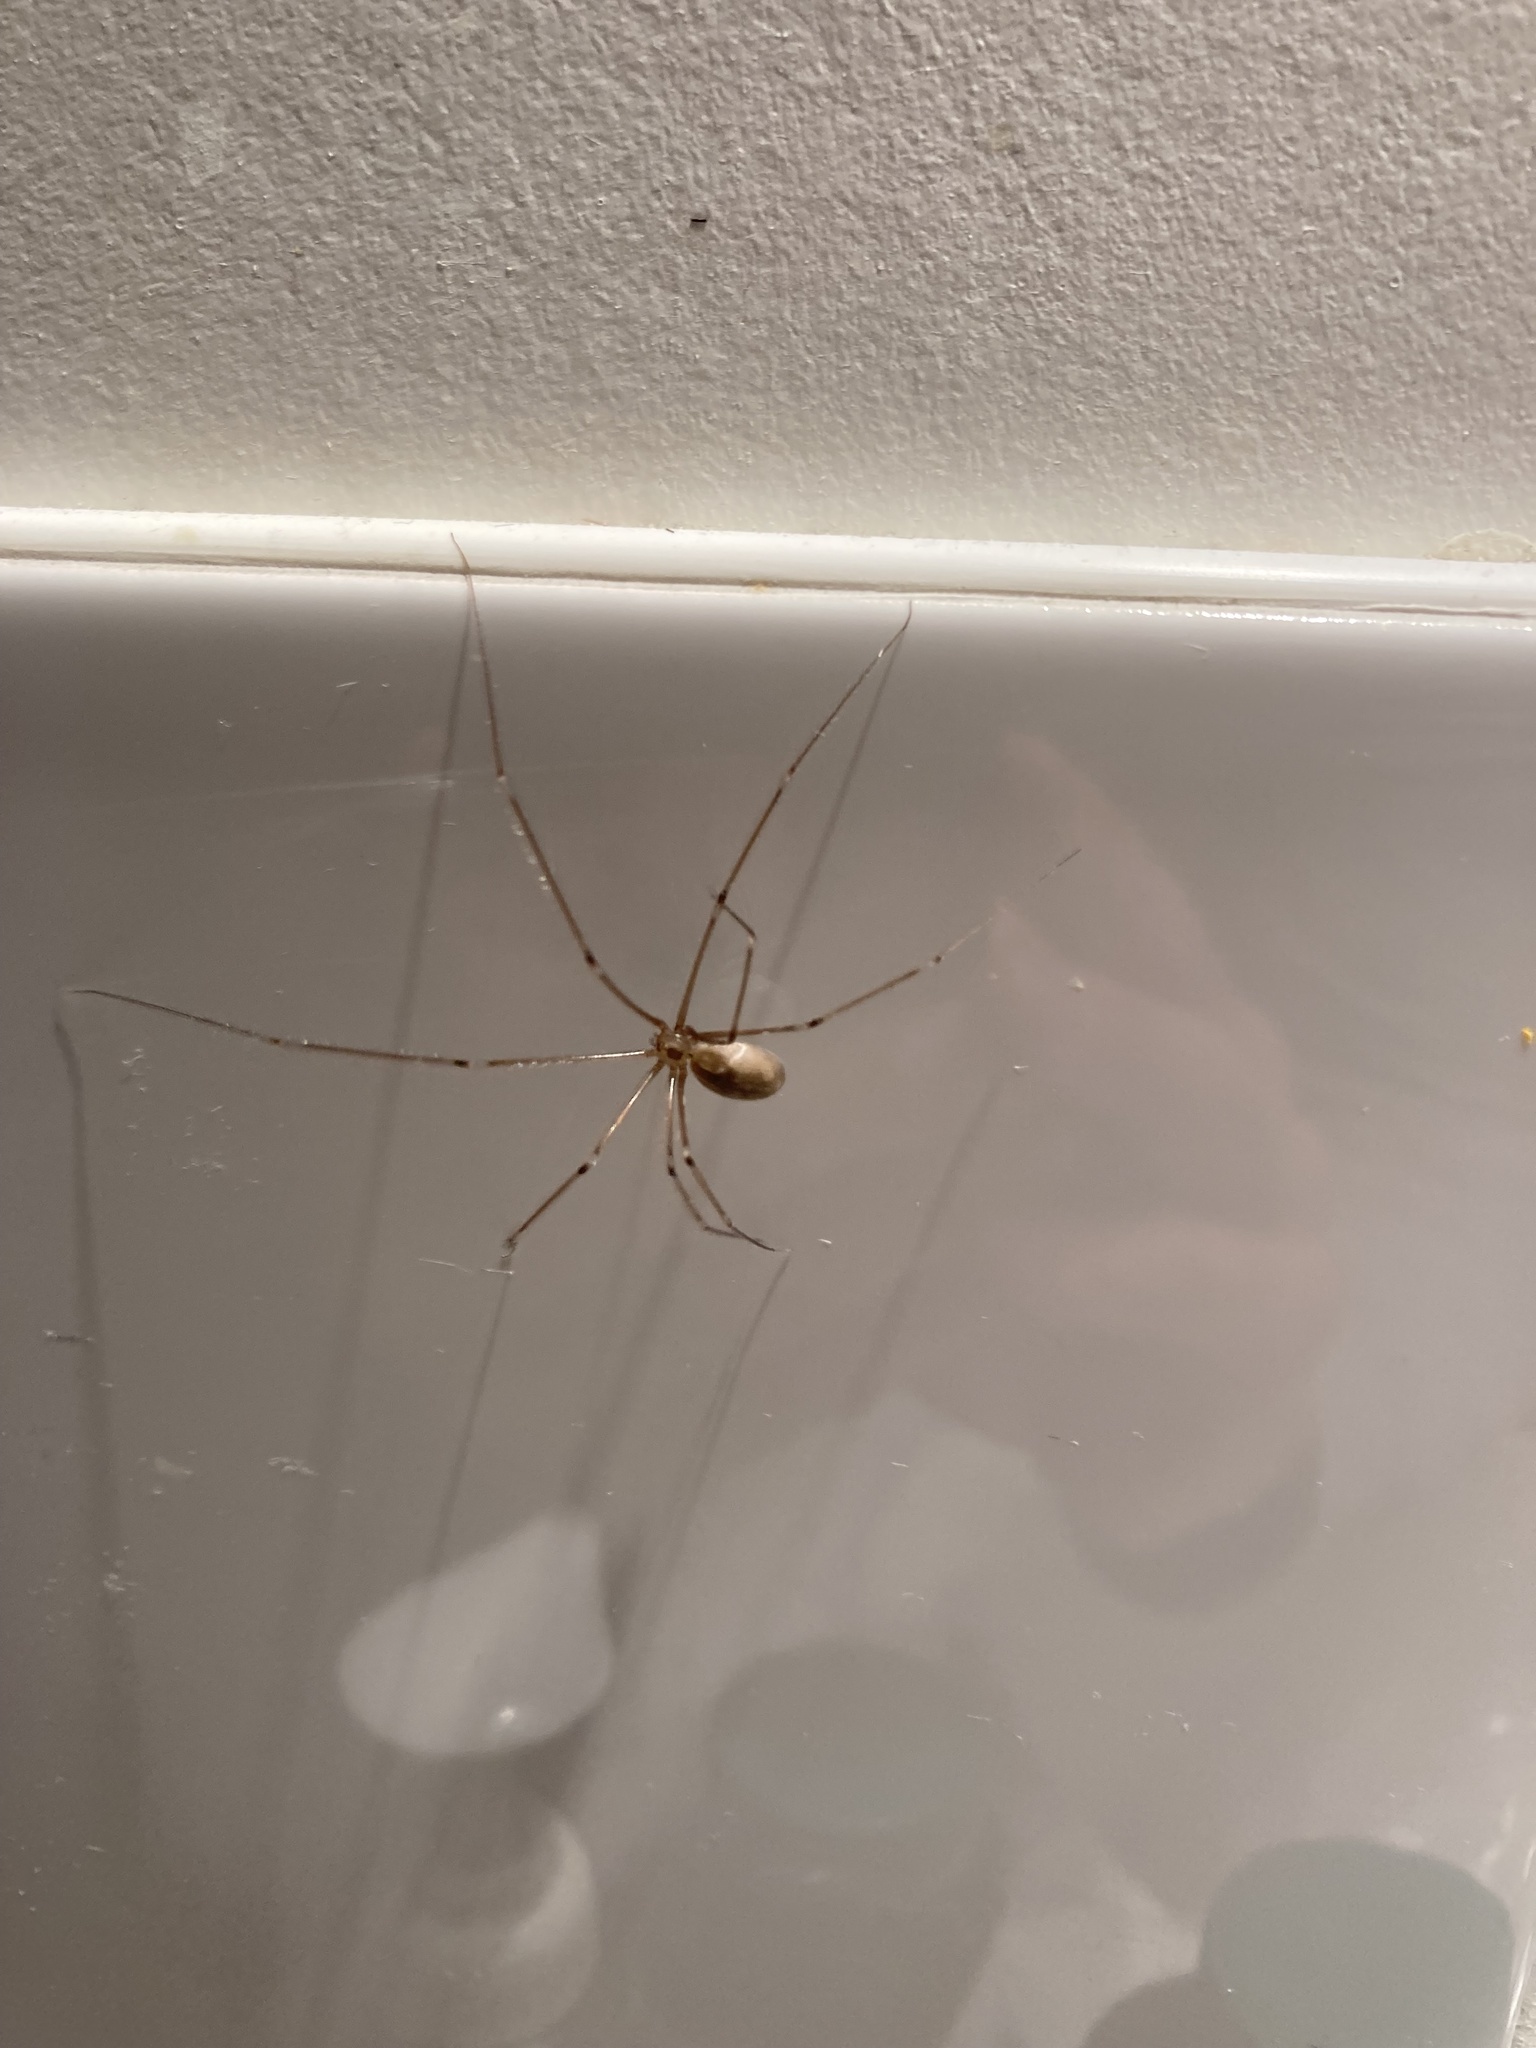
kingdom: Animalia
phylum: Arthropoda
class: Arachnida
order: Araneae
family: Pholcidae
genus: Pholcus
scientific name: Pholcus phalangioides
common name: Longbodied cellar spider
